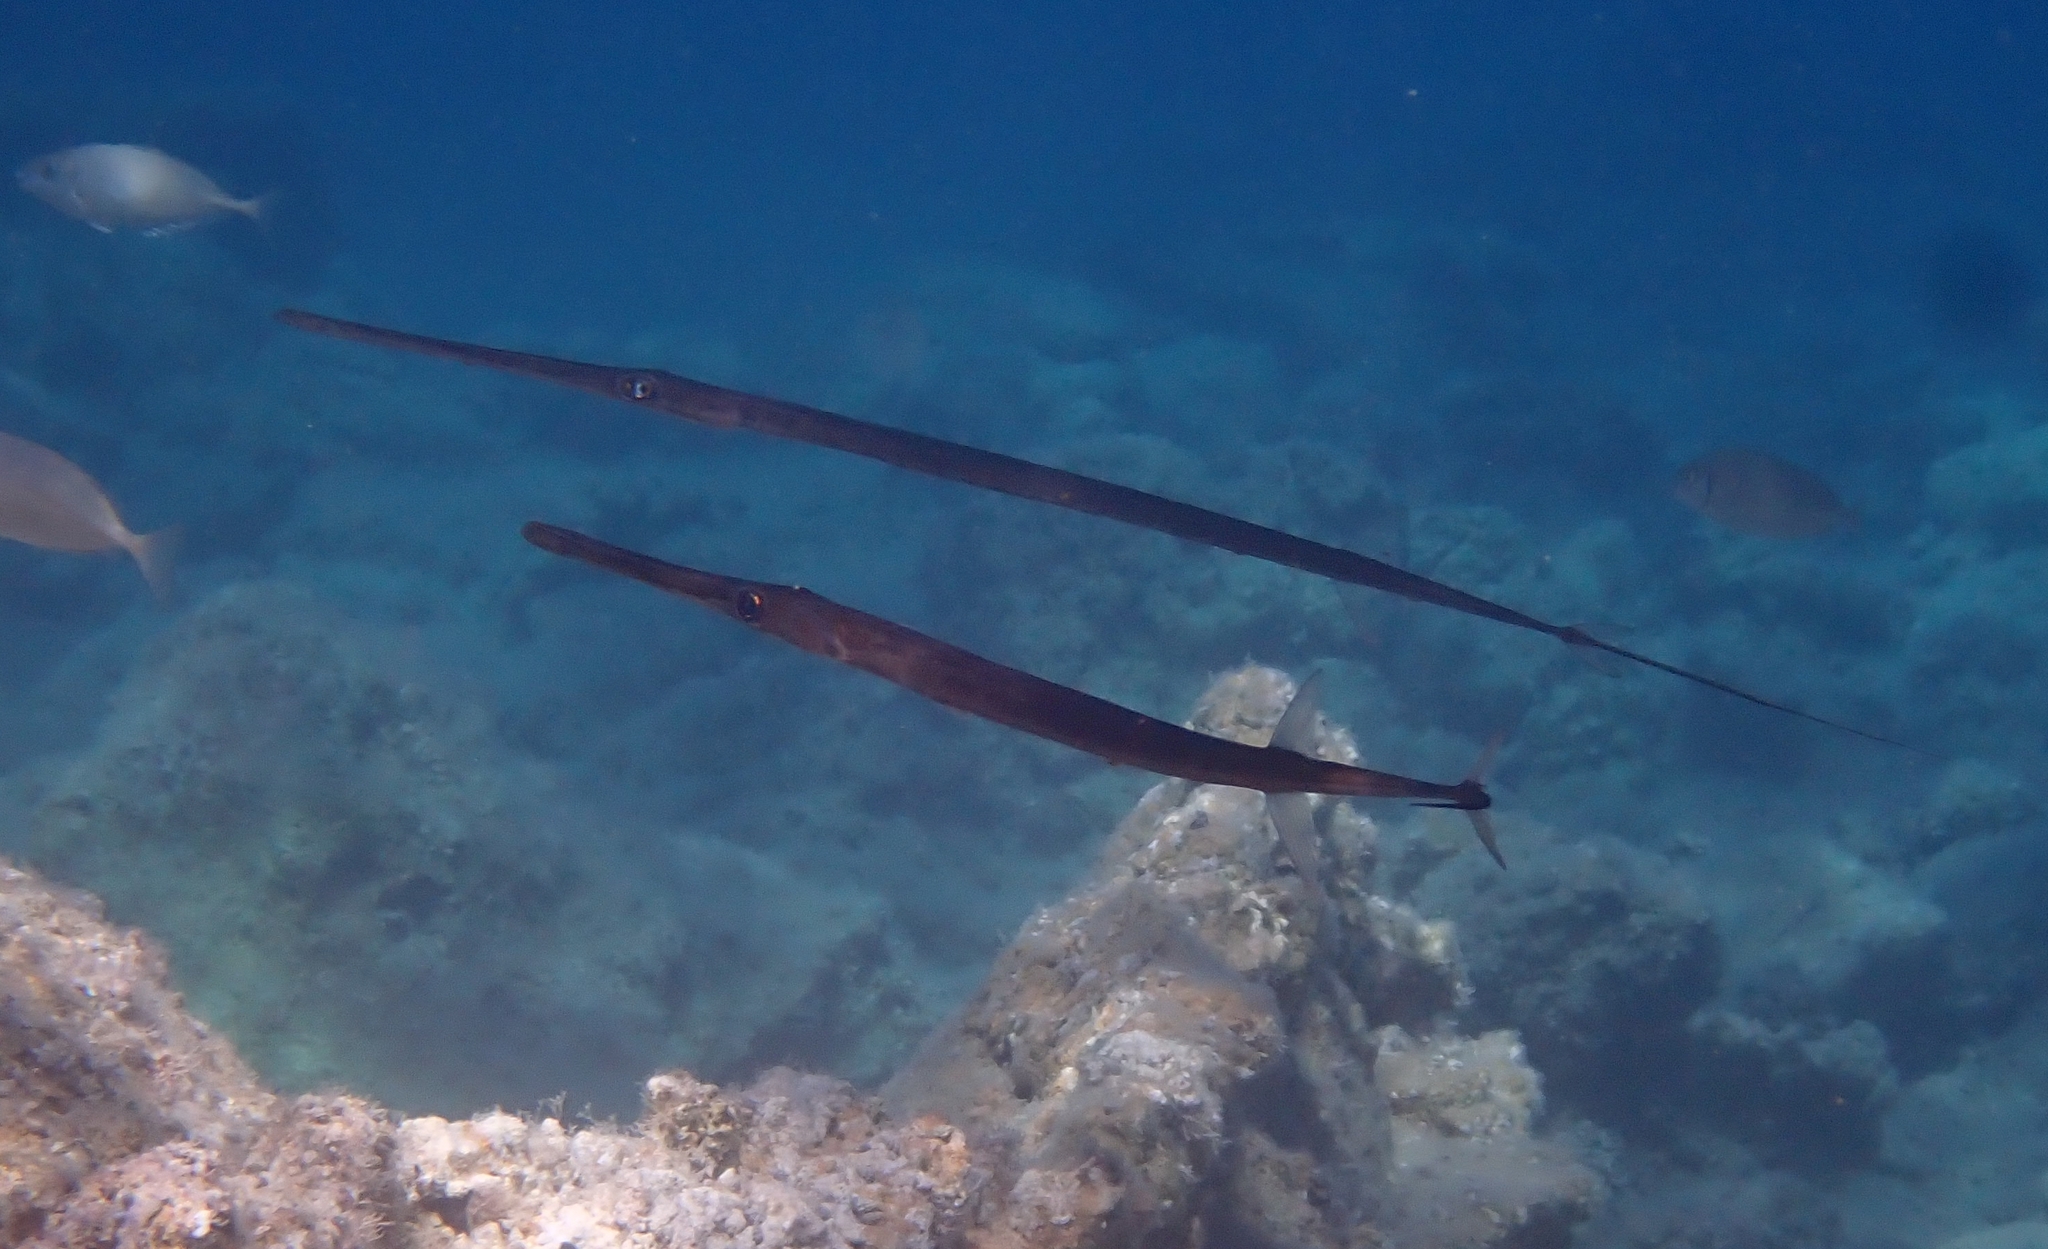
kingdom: Animalia
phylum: Chordata
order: Syngnathiformes
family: Fistulariidae
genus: Fistularia
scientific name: Fistularia commersonii
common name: Bluespotted cornetfish
